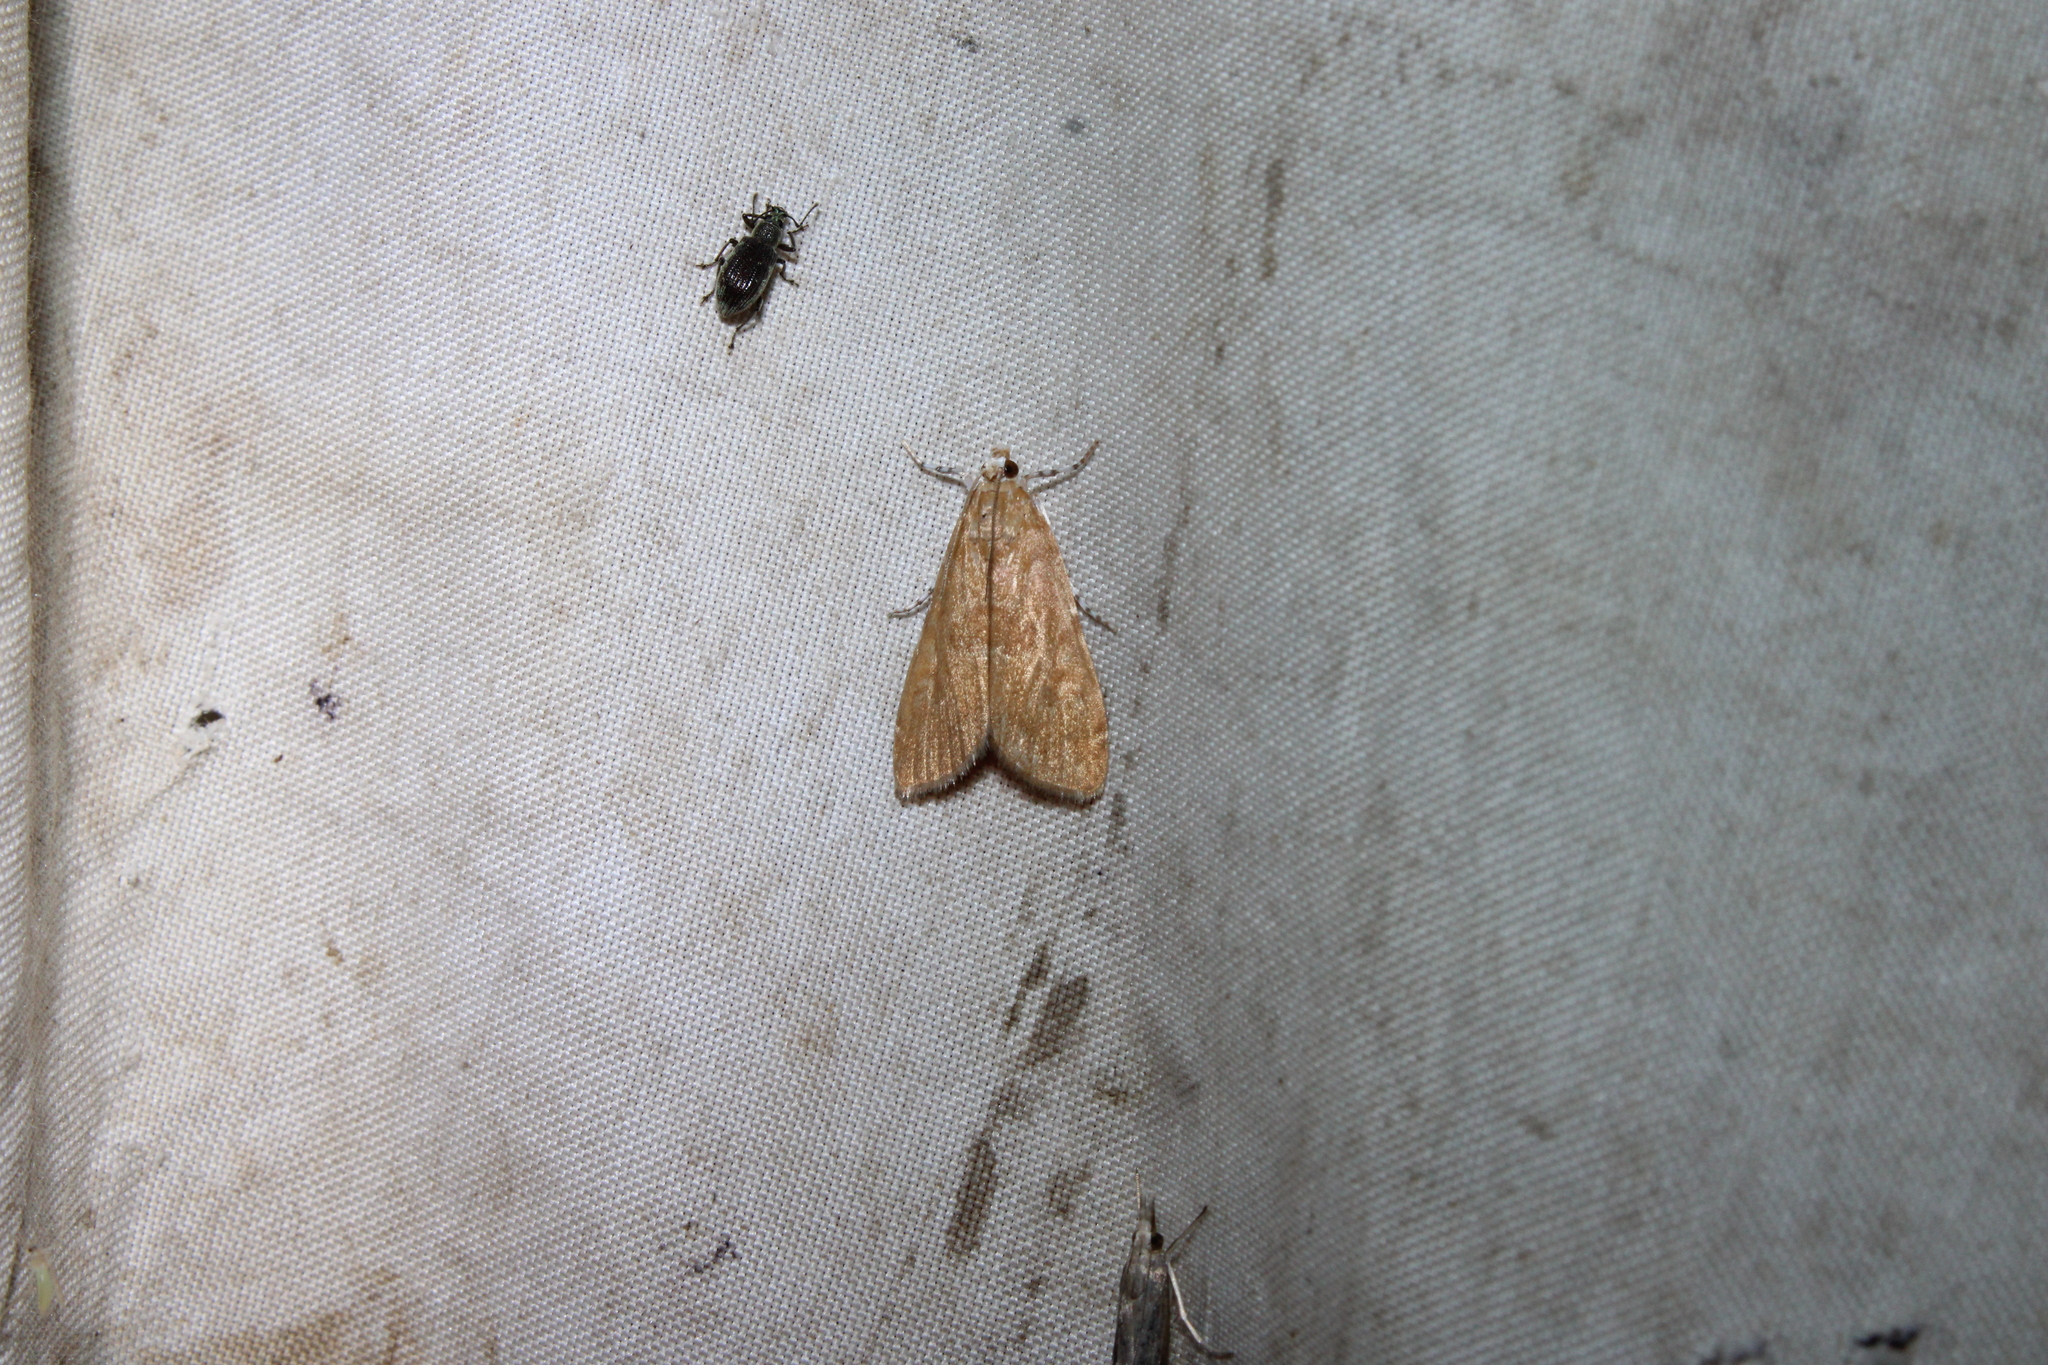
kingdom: Animalia
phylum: Arthropoda
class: Insecta
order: Lepidoptera
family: Crambidae
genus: Elophila
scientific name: Elophila gyralis
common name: Waterlily borer moth
